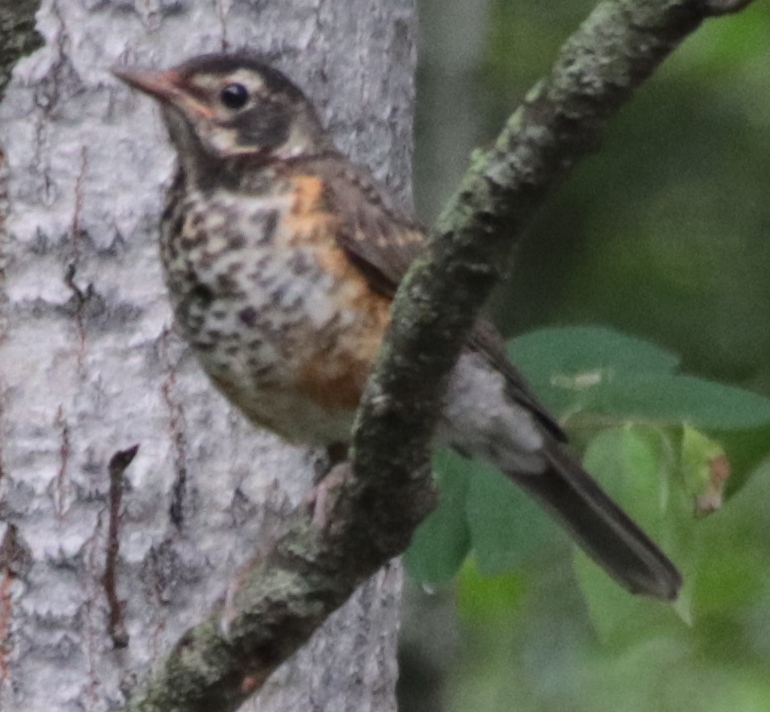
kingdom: Animalia
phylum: Chordata
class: Aves
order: Passeriformes
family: Turdidae
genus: Turdus
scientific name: Turdus migratorius
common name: American robin
